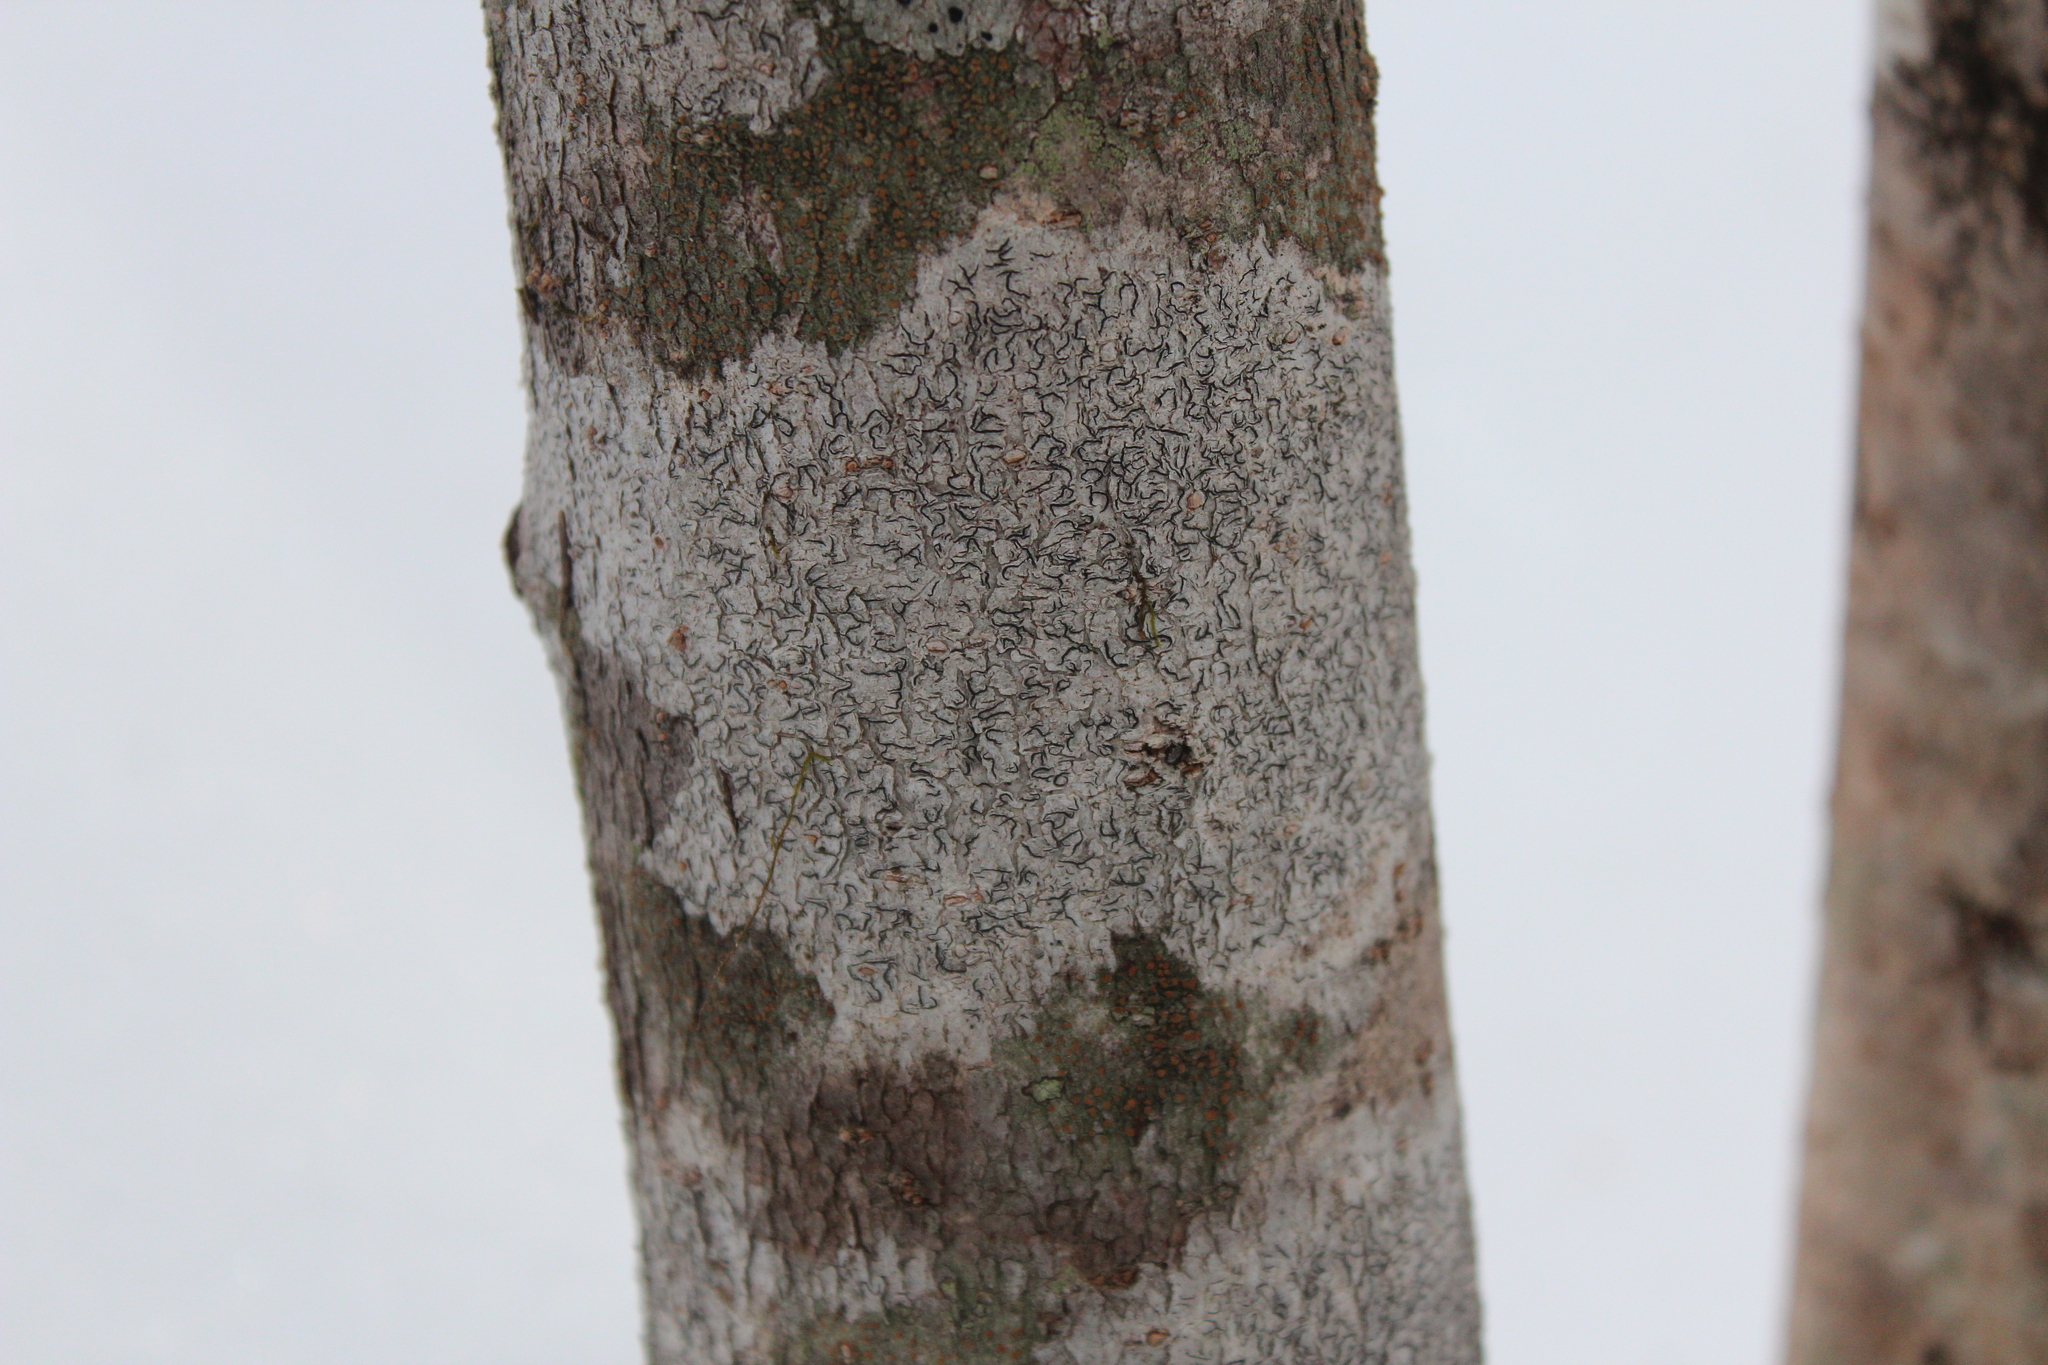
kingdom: Fungi
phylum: Ascomycota
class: Lecanoromycetes
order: Ostropales
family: Graphidaceae
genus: Graphis
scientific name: Graphis scripta
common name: Script lichen
